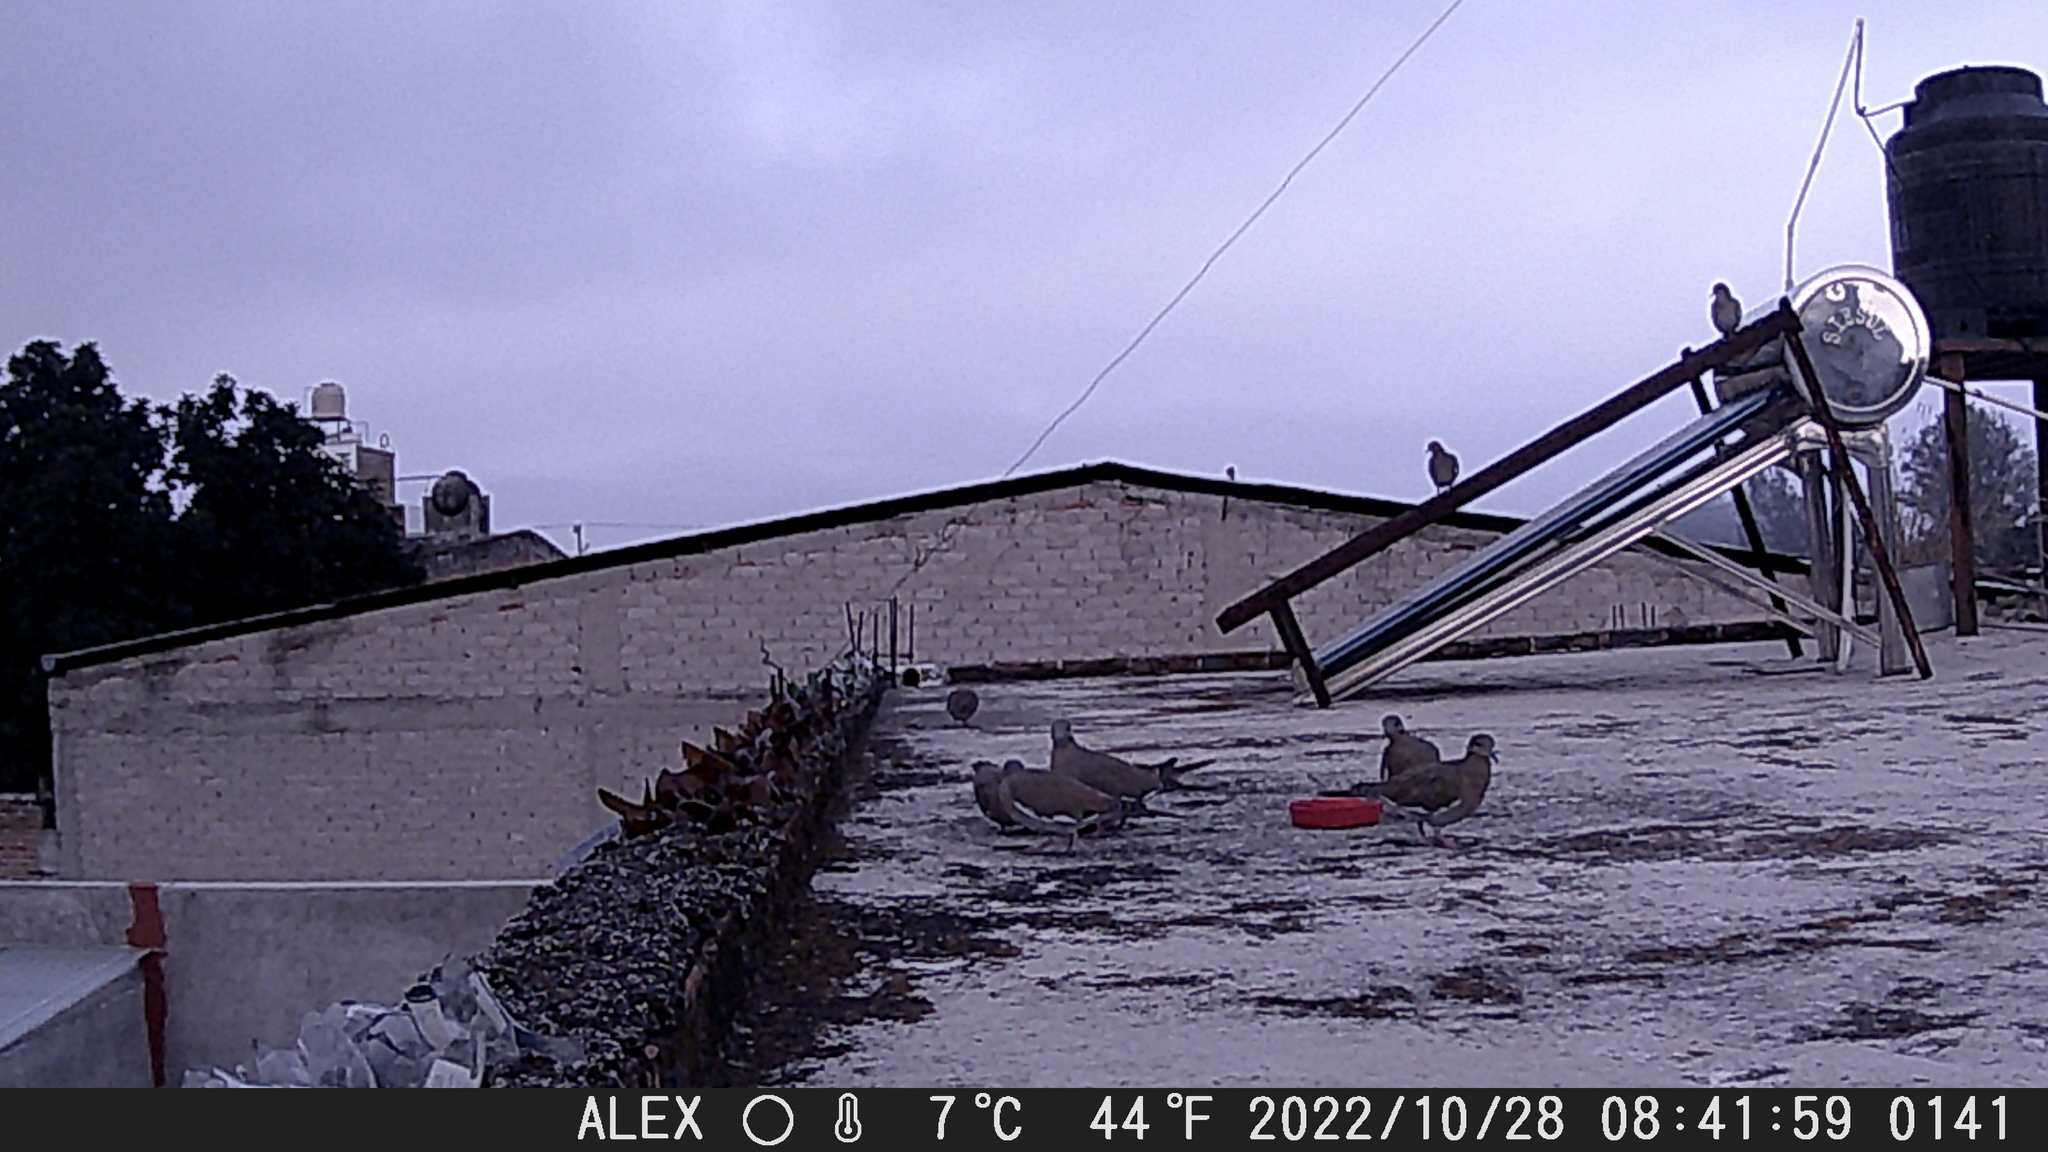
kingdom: Animalia
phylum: Chordata
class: Aves
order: Columbiformes
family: Columbidae
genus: Zenaida
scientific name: Zenaida asiatica
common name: White-winged dove
